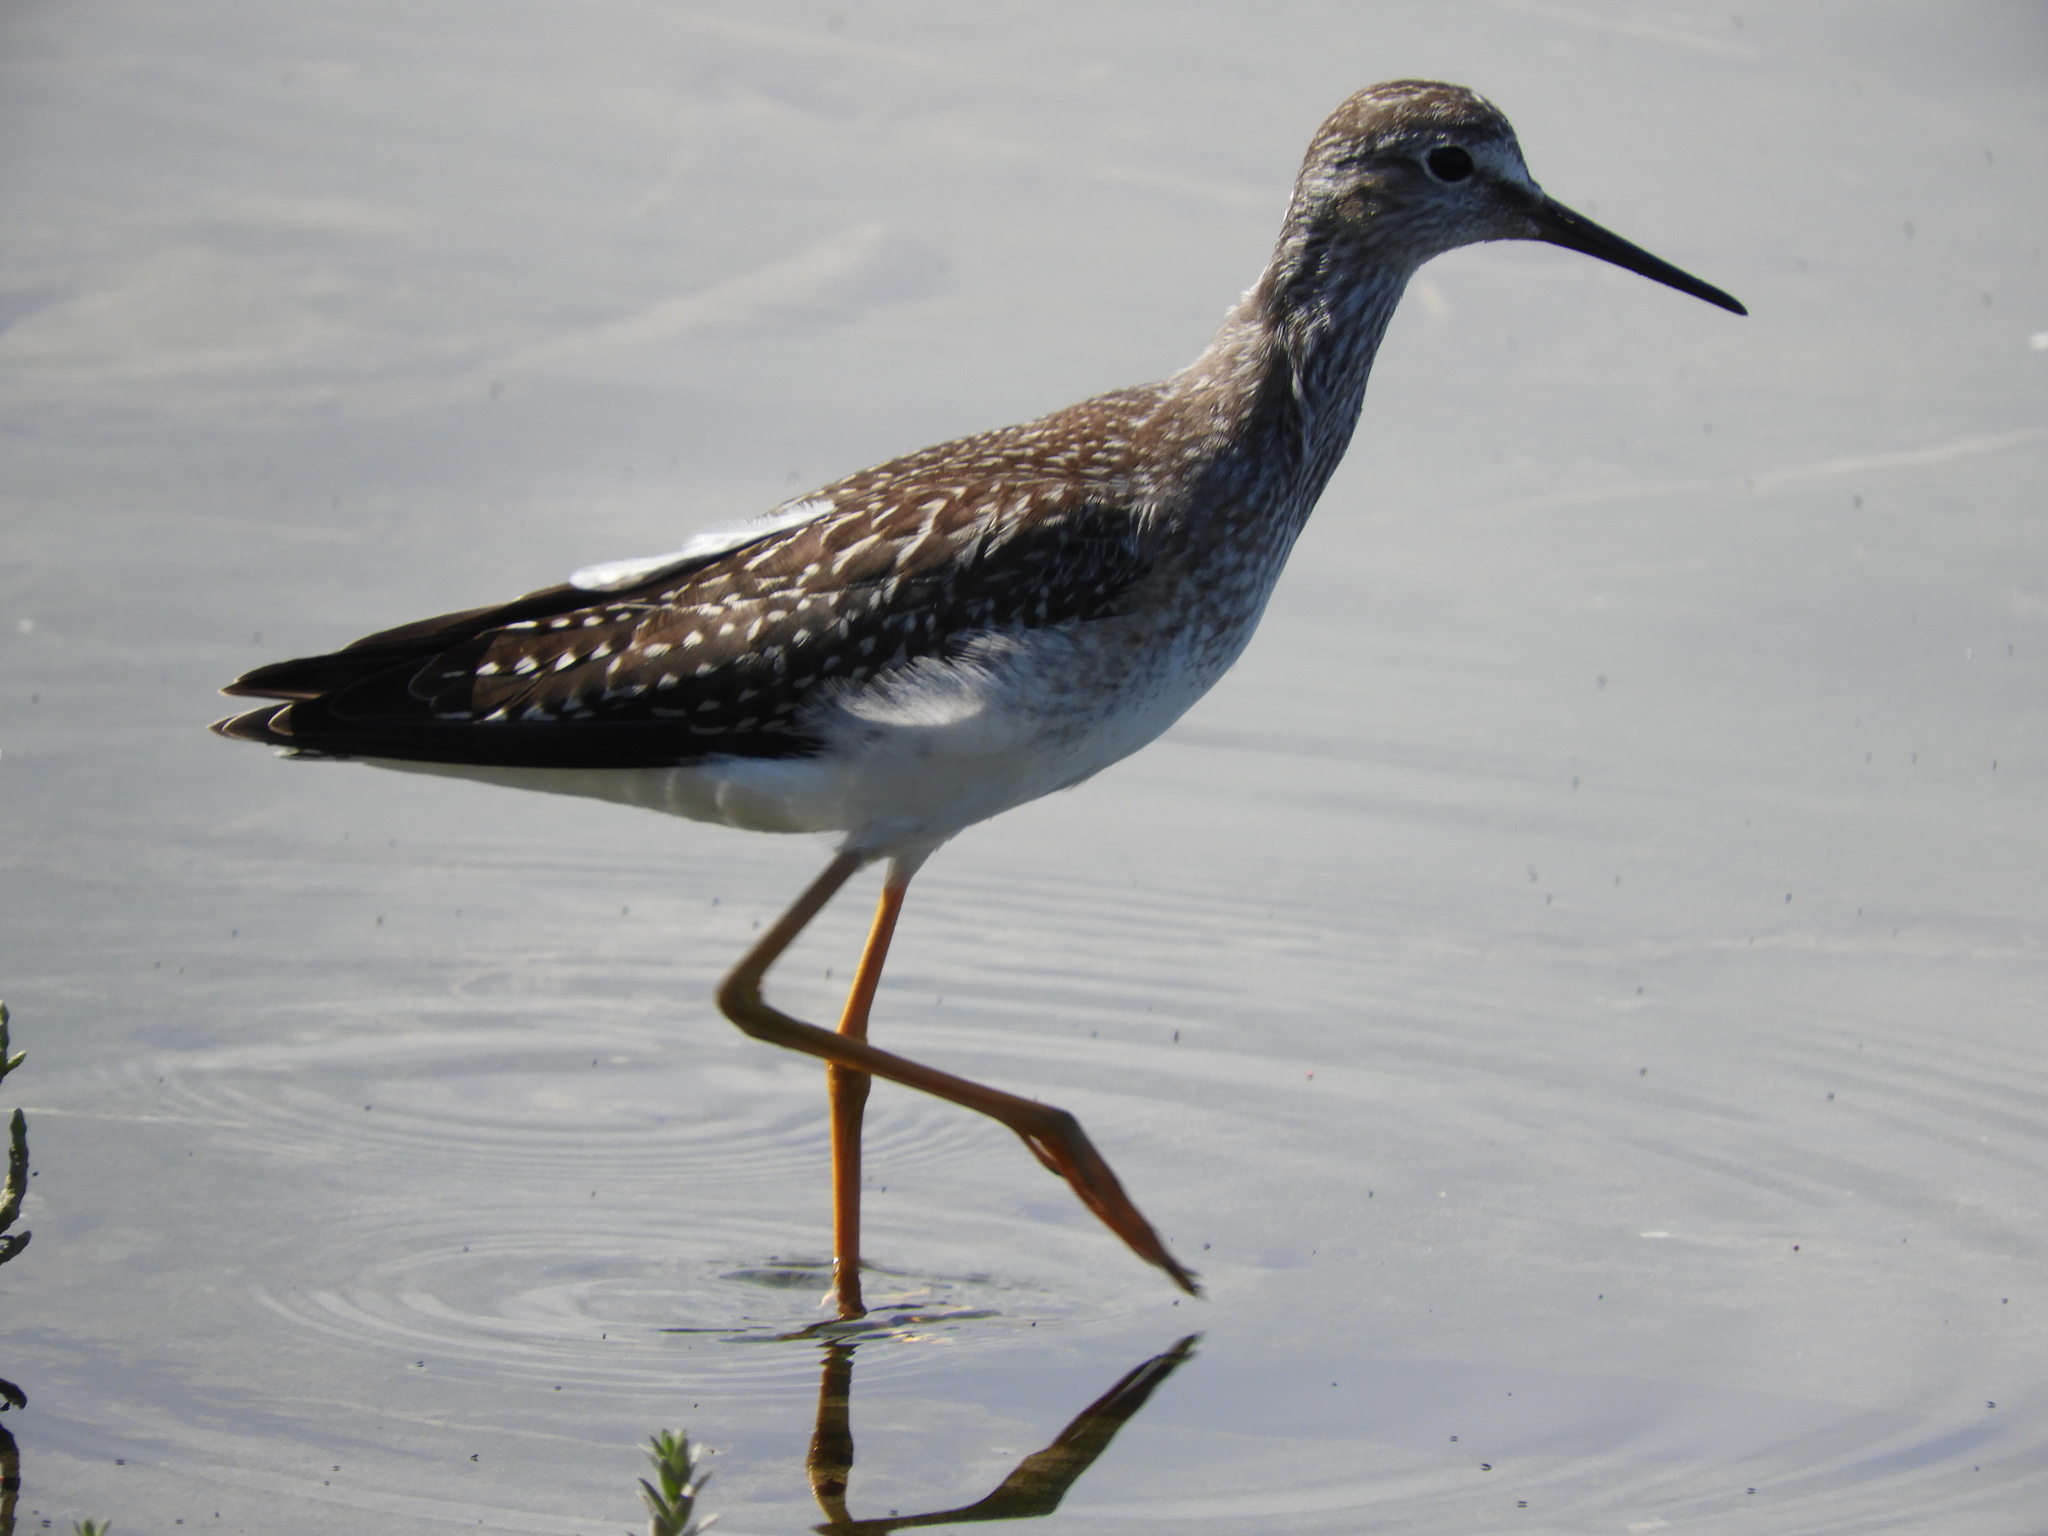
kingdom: Animalia
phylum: Chordata
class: Aves
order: Charadriiformes
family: Scolopacidae
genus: Tringa
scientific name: Tringa flavipes
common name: Lesser yellowlegs
